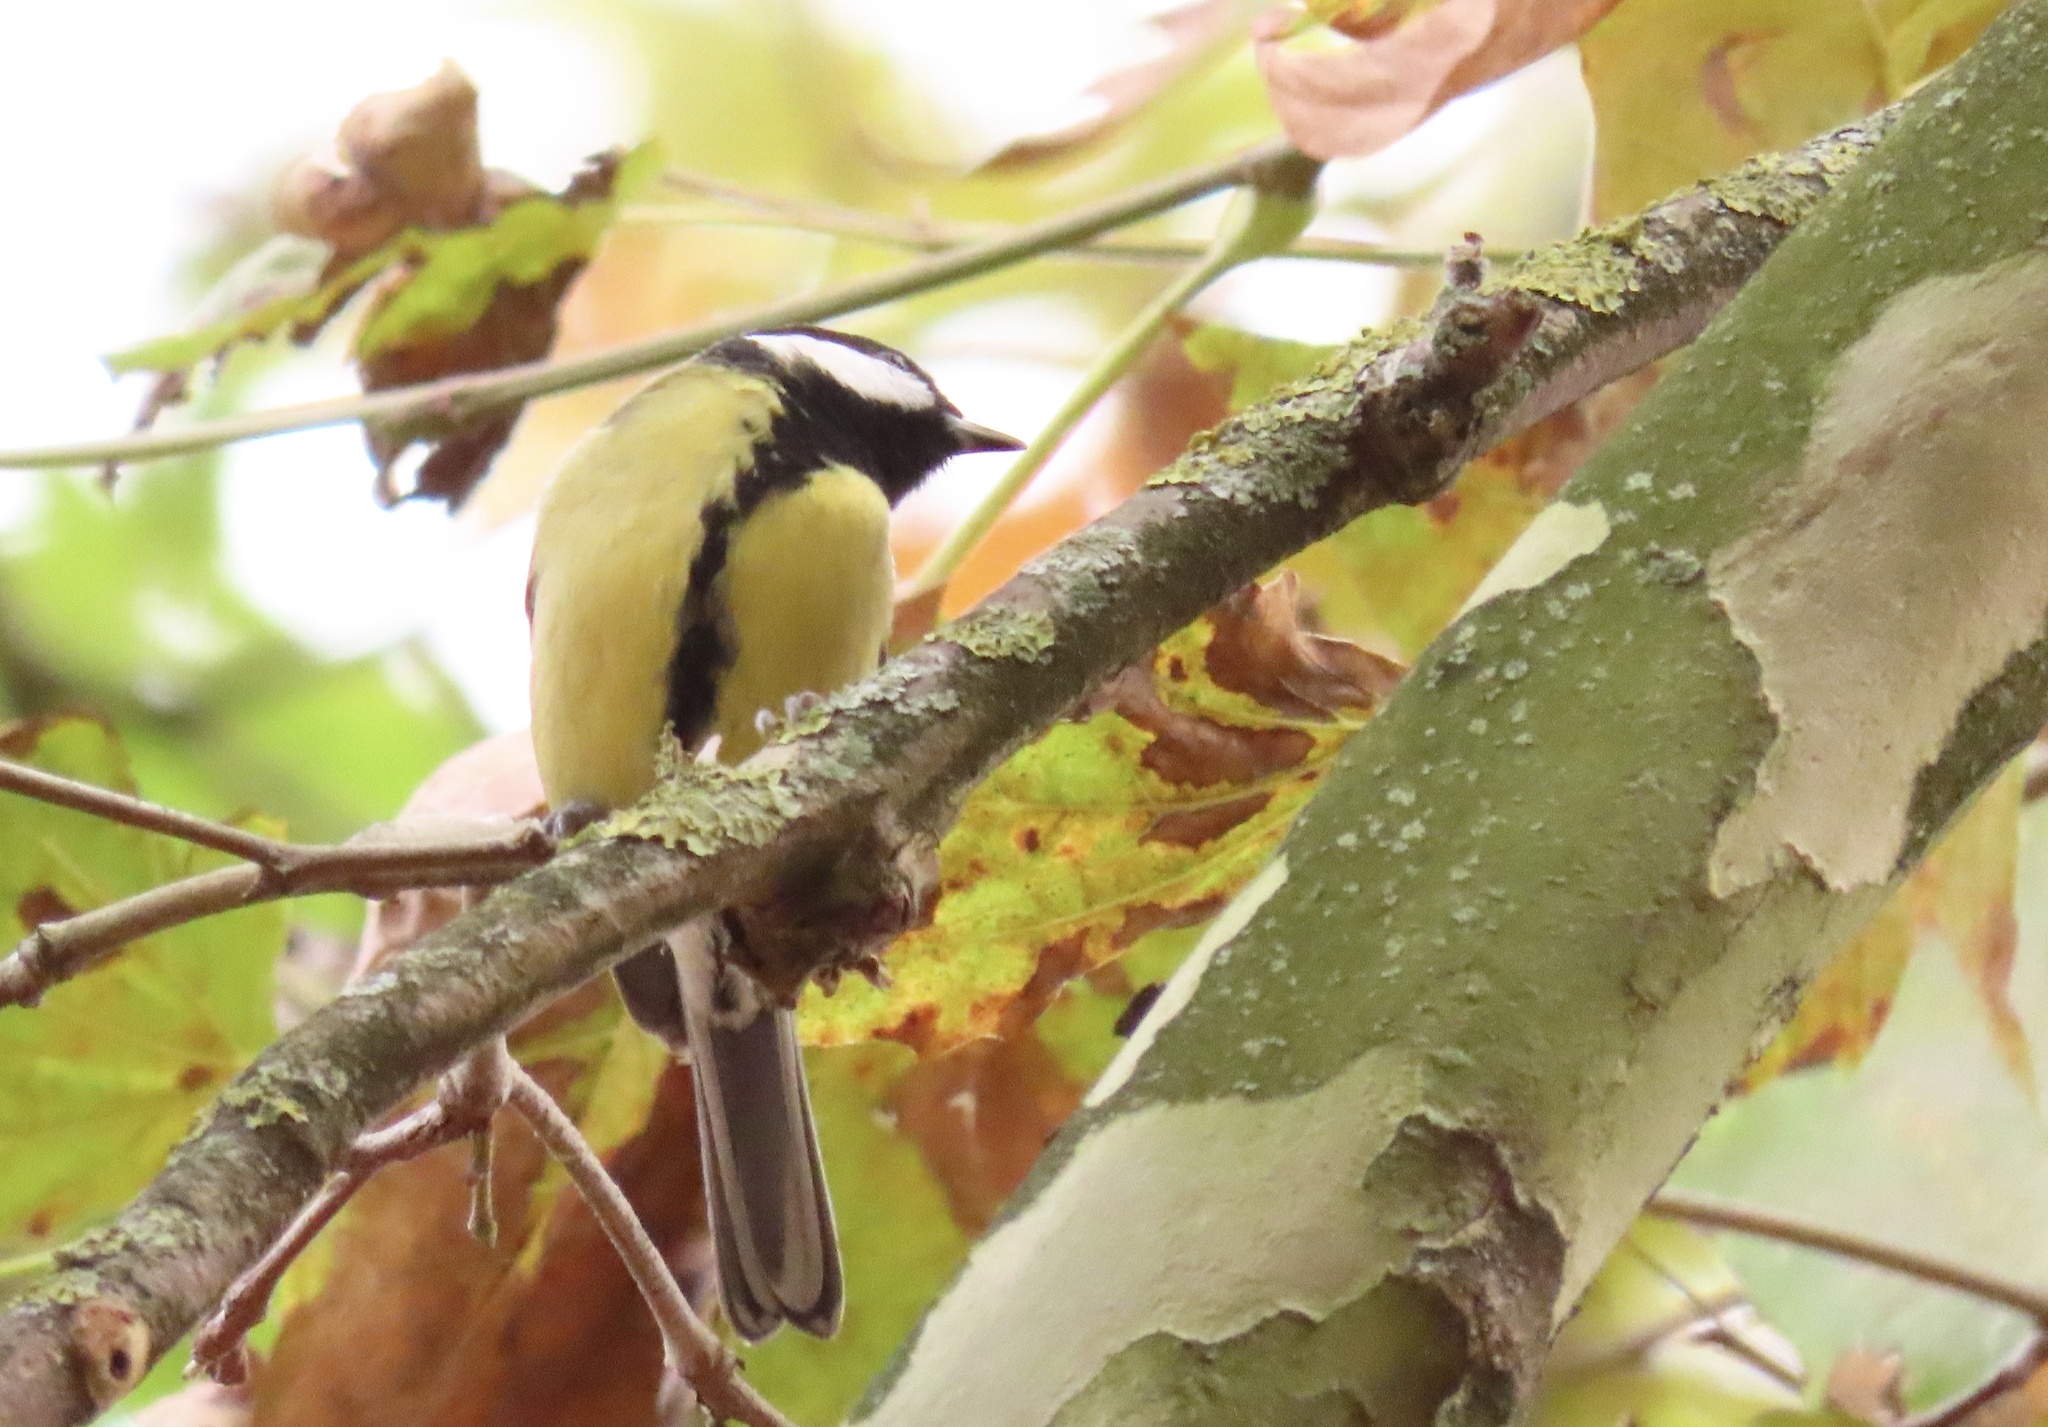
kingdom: Animalia
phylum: Chordata
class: Aves
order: Passeriformes
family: Paridae
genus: Parus
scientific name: Parus major
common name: Great tit
